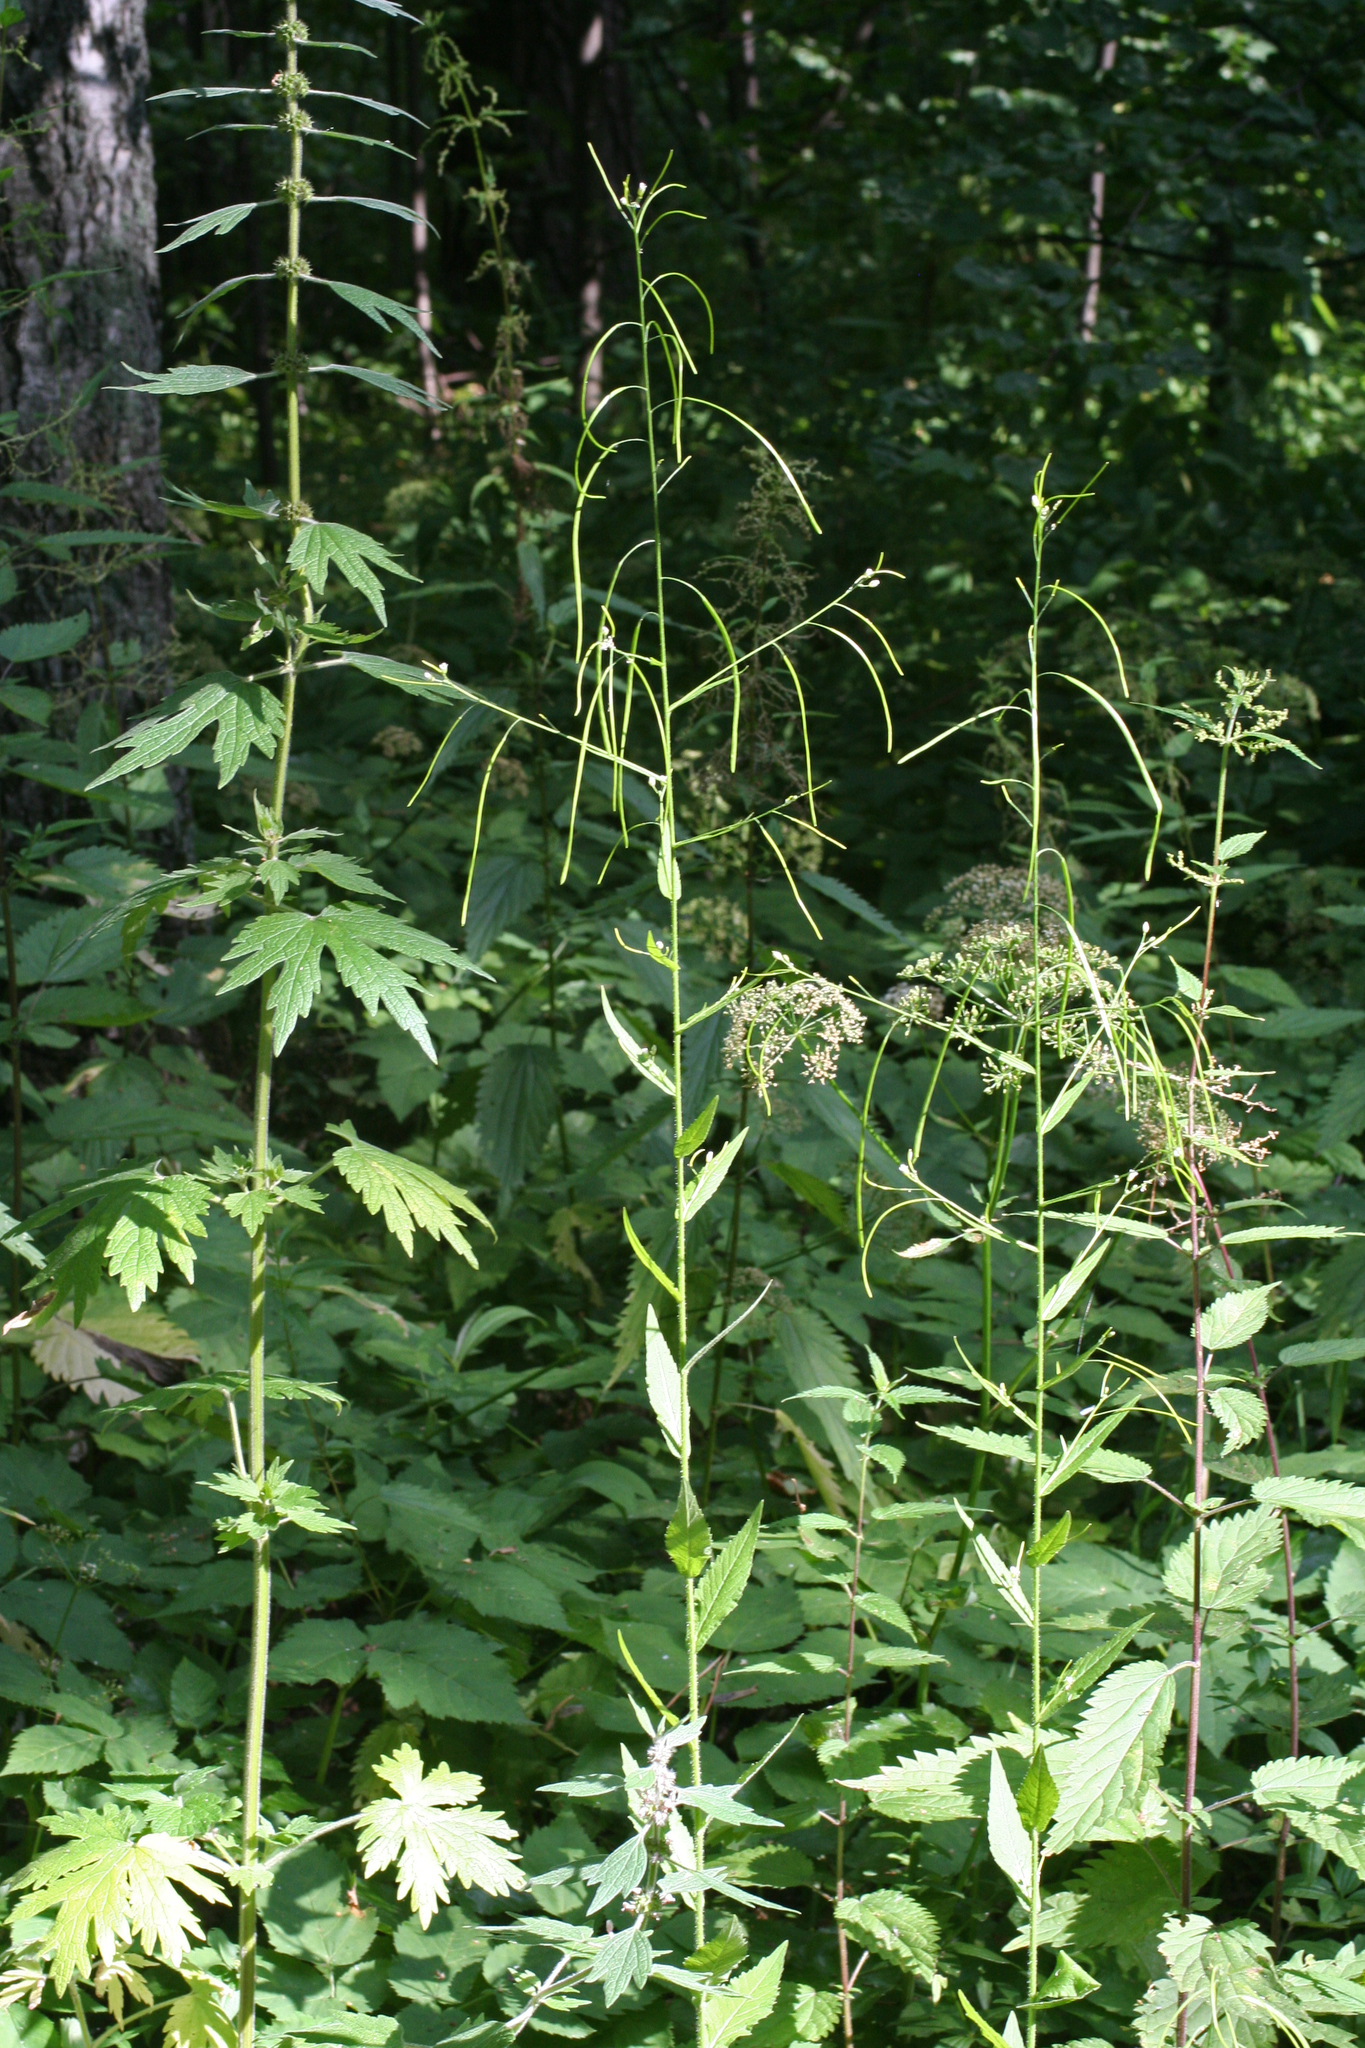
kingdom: Plantae
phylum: Tracheophyta
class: Magnoliopsida
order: Brassicales
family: Brassicaceae
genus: Catolobus
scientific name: Catolobus pendulus
